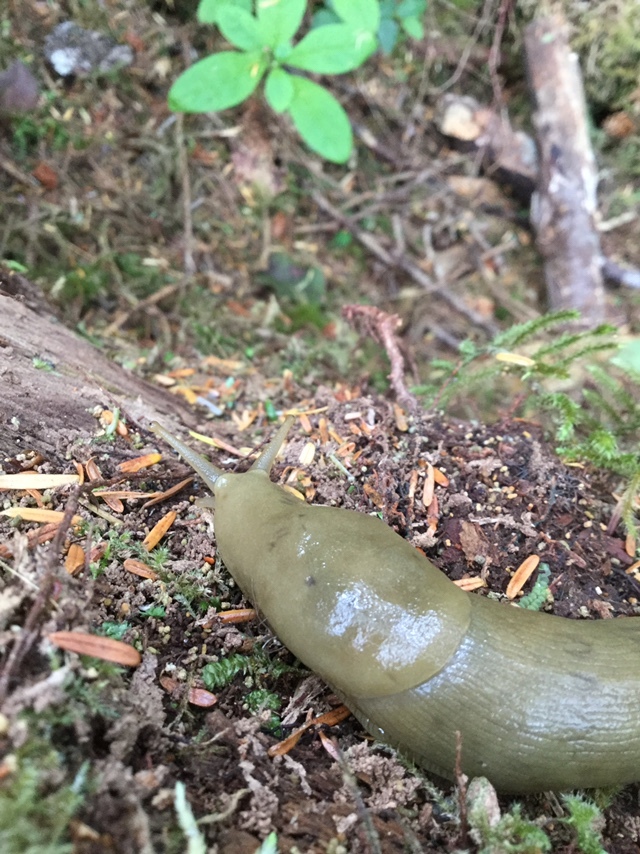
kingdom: Animalia
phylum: Mollusca
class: Gastropoda
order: Stylommatophora
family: Ariolimacidae
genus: Ariolimax
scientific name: Ariolimax columbianus
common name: Pacific banana slug
